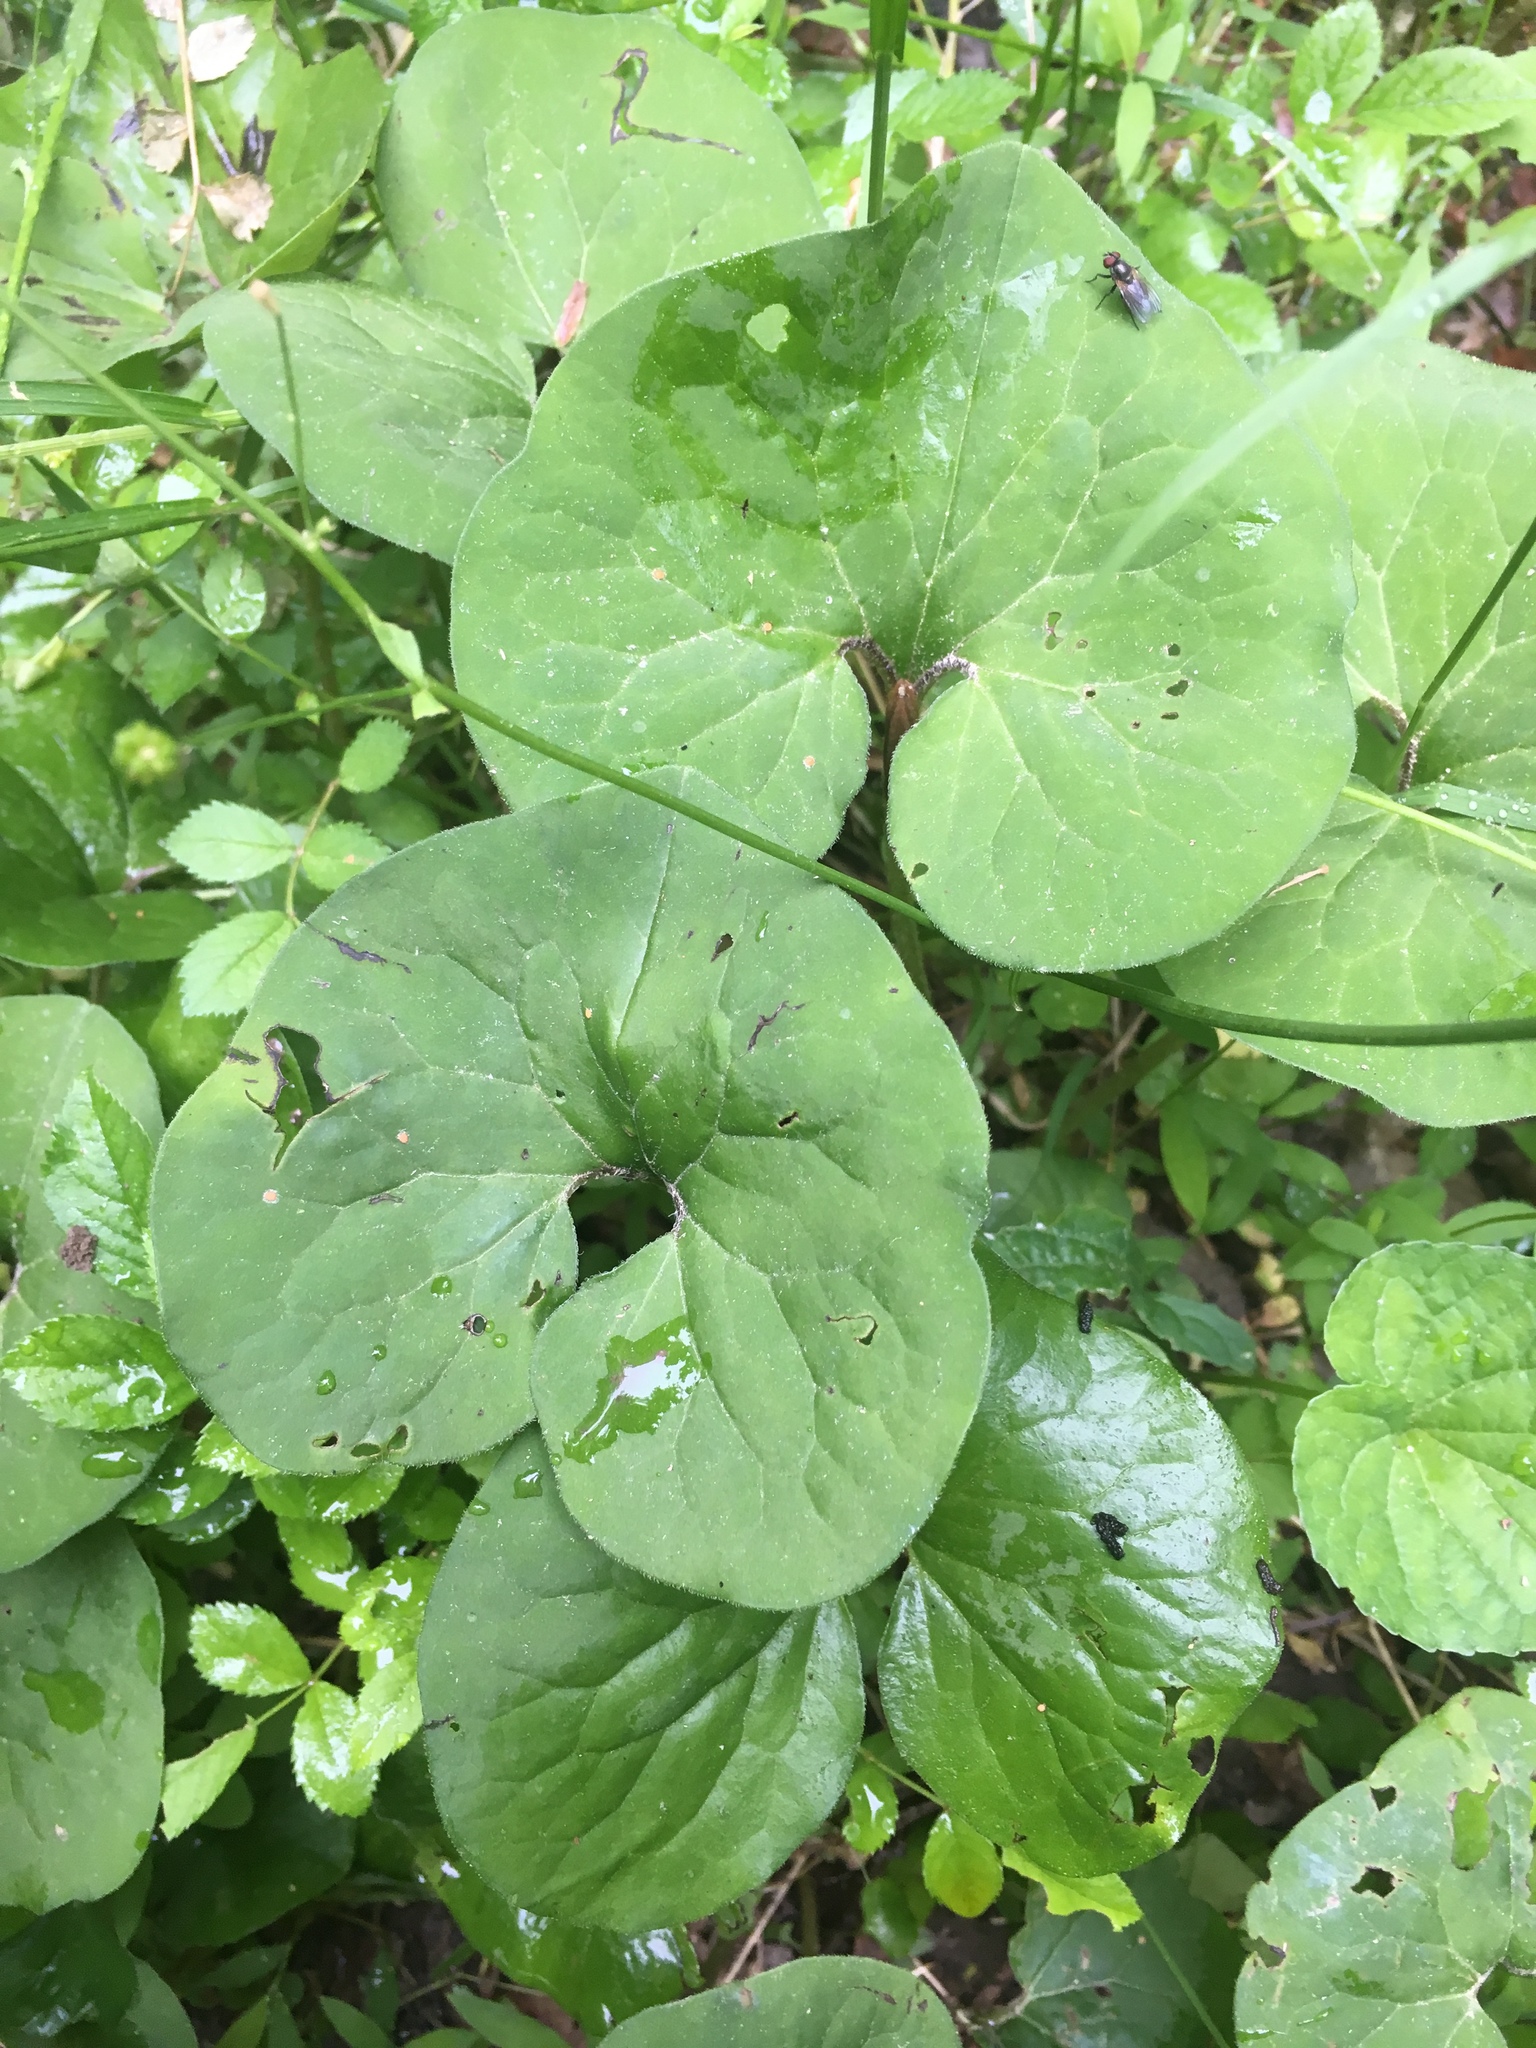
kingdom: Plantae
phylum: Tracheophyta
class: Magnoliopsida
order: Piperales
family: Aristolochiaceae
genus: Asarum
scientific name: Asarum canadense
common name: Wild ginger
